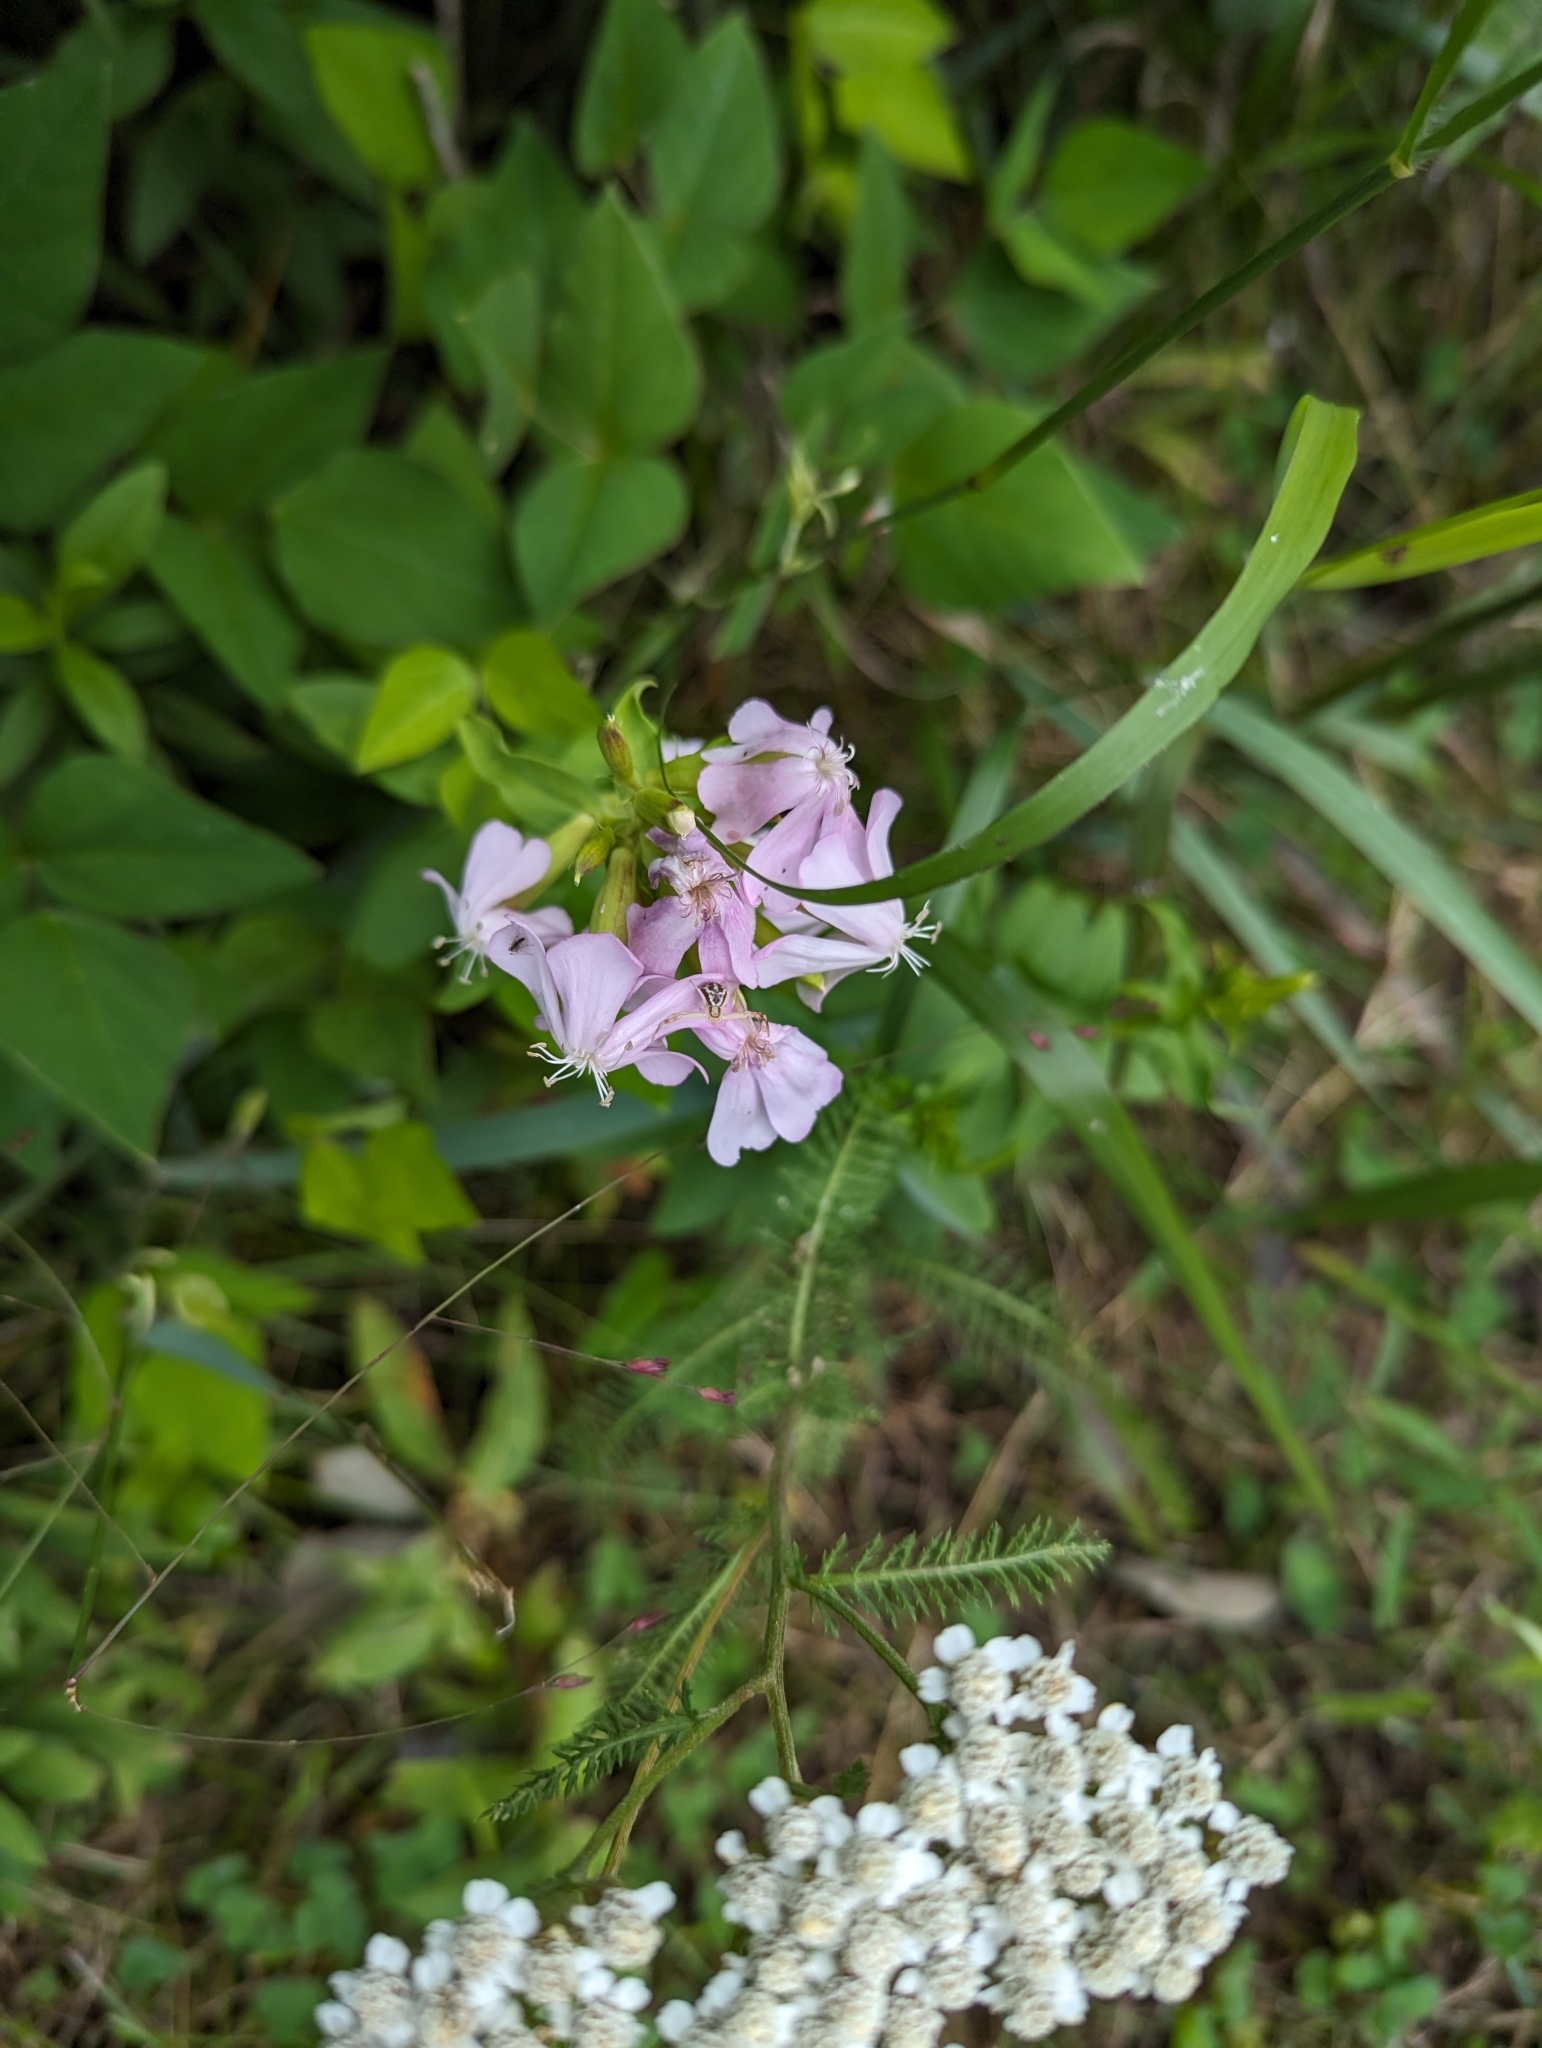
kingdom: Plantae
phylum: Tracheophyta
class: Magnoliopsida
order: Caryophyllales
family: Caryophyllaceae
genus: Saponaria
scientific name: Saponaria officinalis
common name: Soapwort
